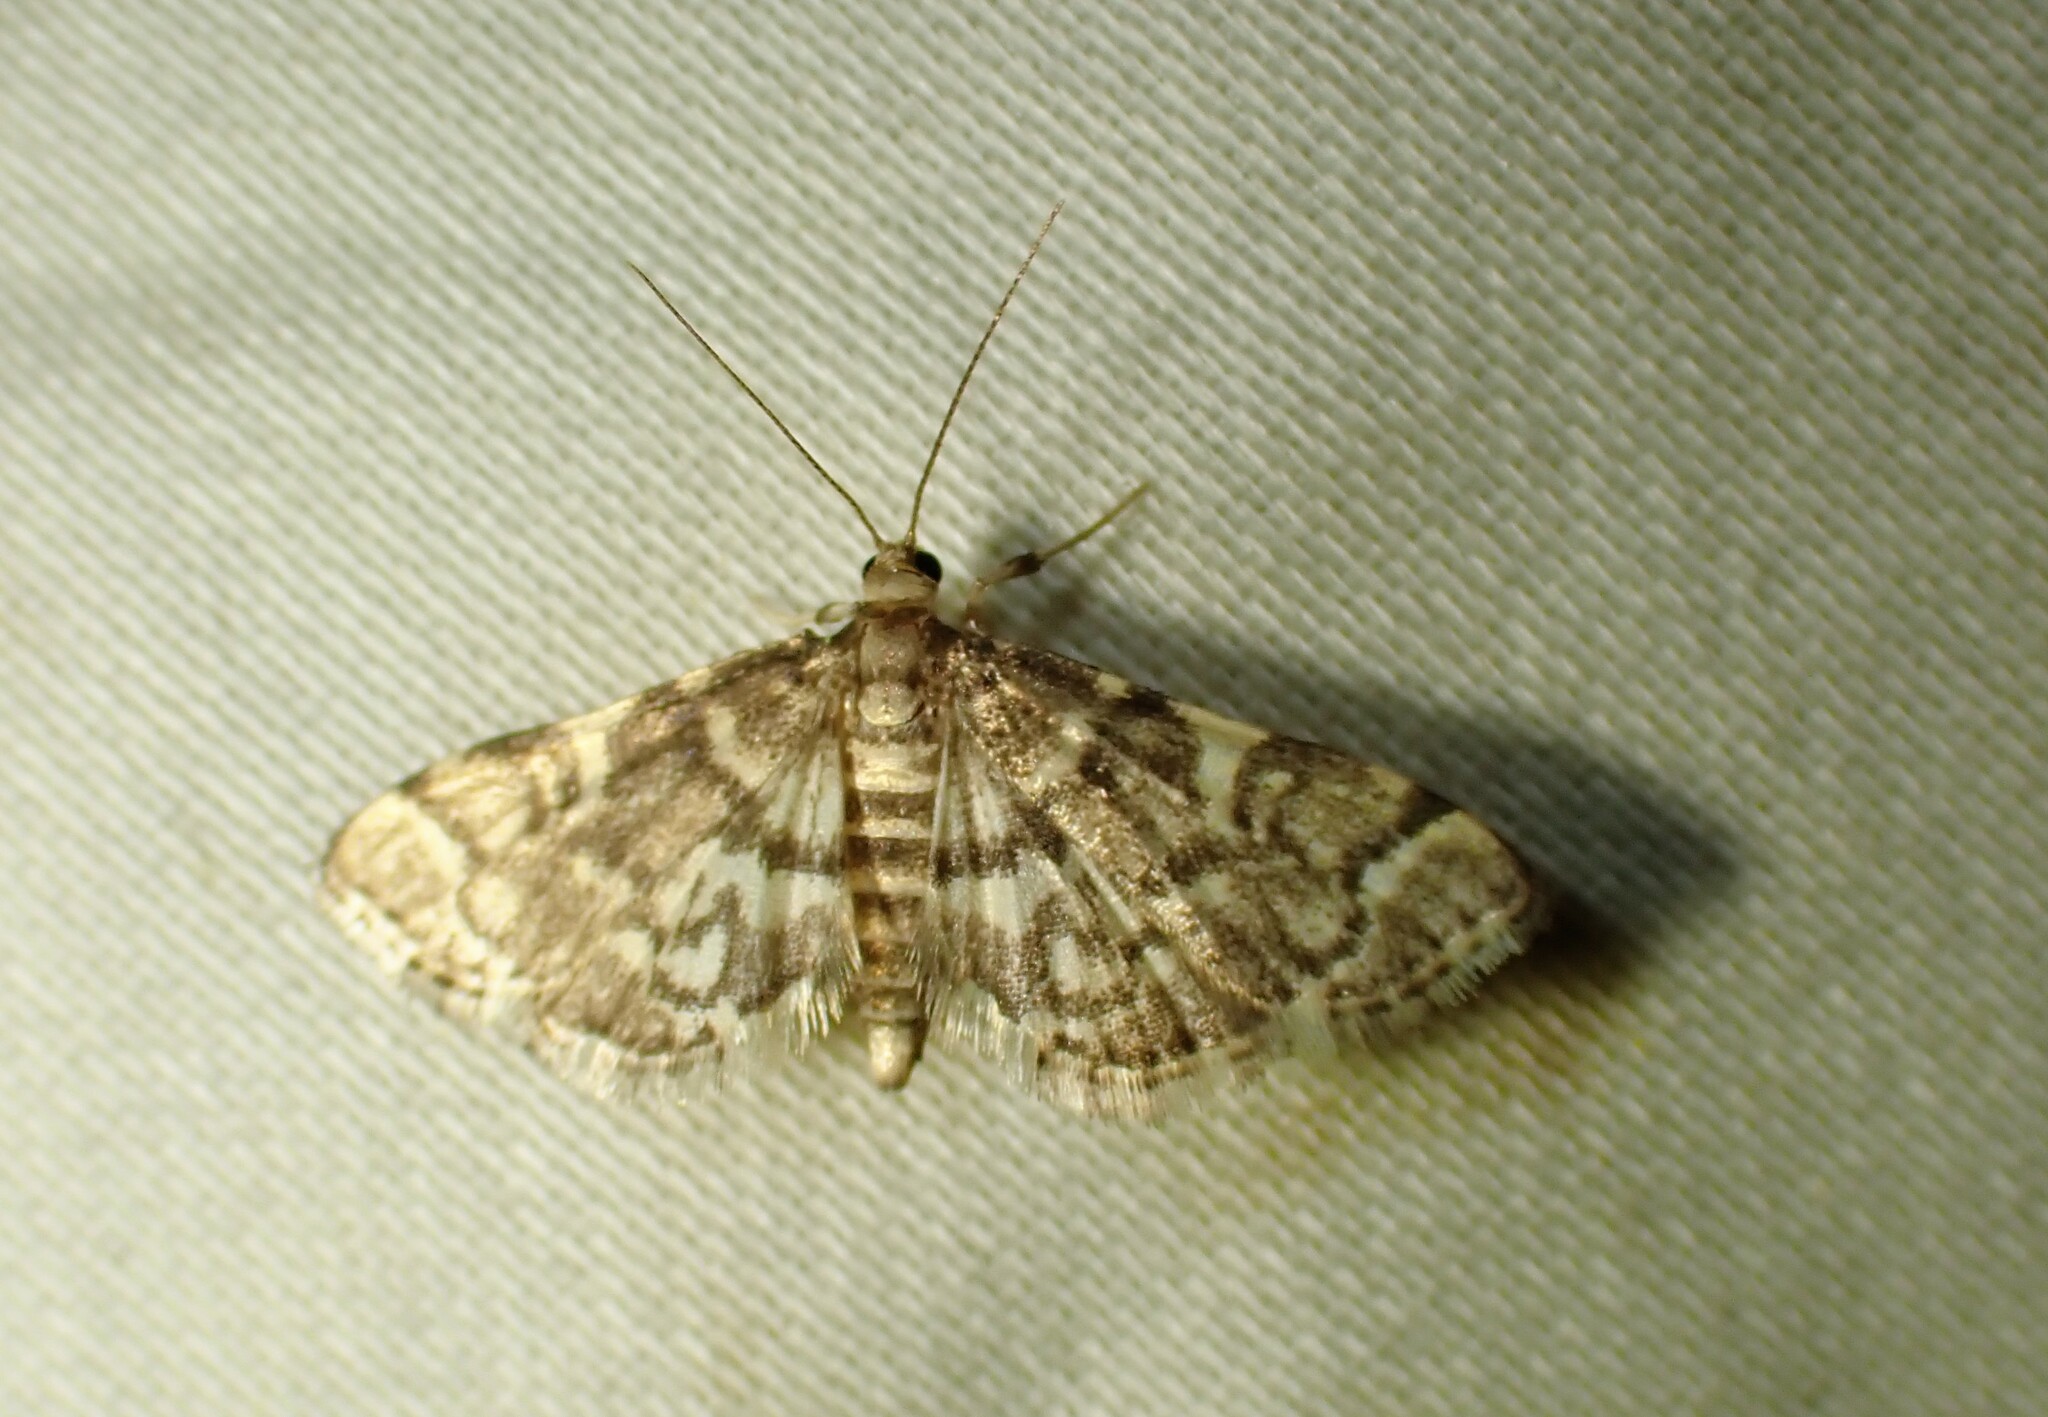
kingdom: Animalia
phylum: Arthropoda
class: Insecta
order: Lepidoptera
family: Crambidae
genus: Anageshna
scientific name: Anageshna primordialis
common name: Yellow-spotted webworm moth
